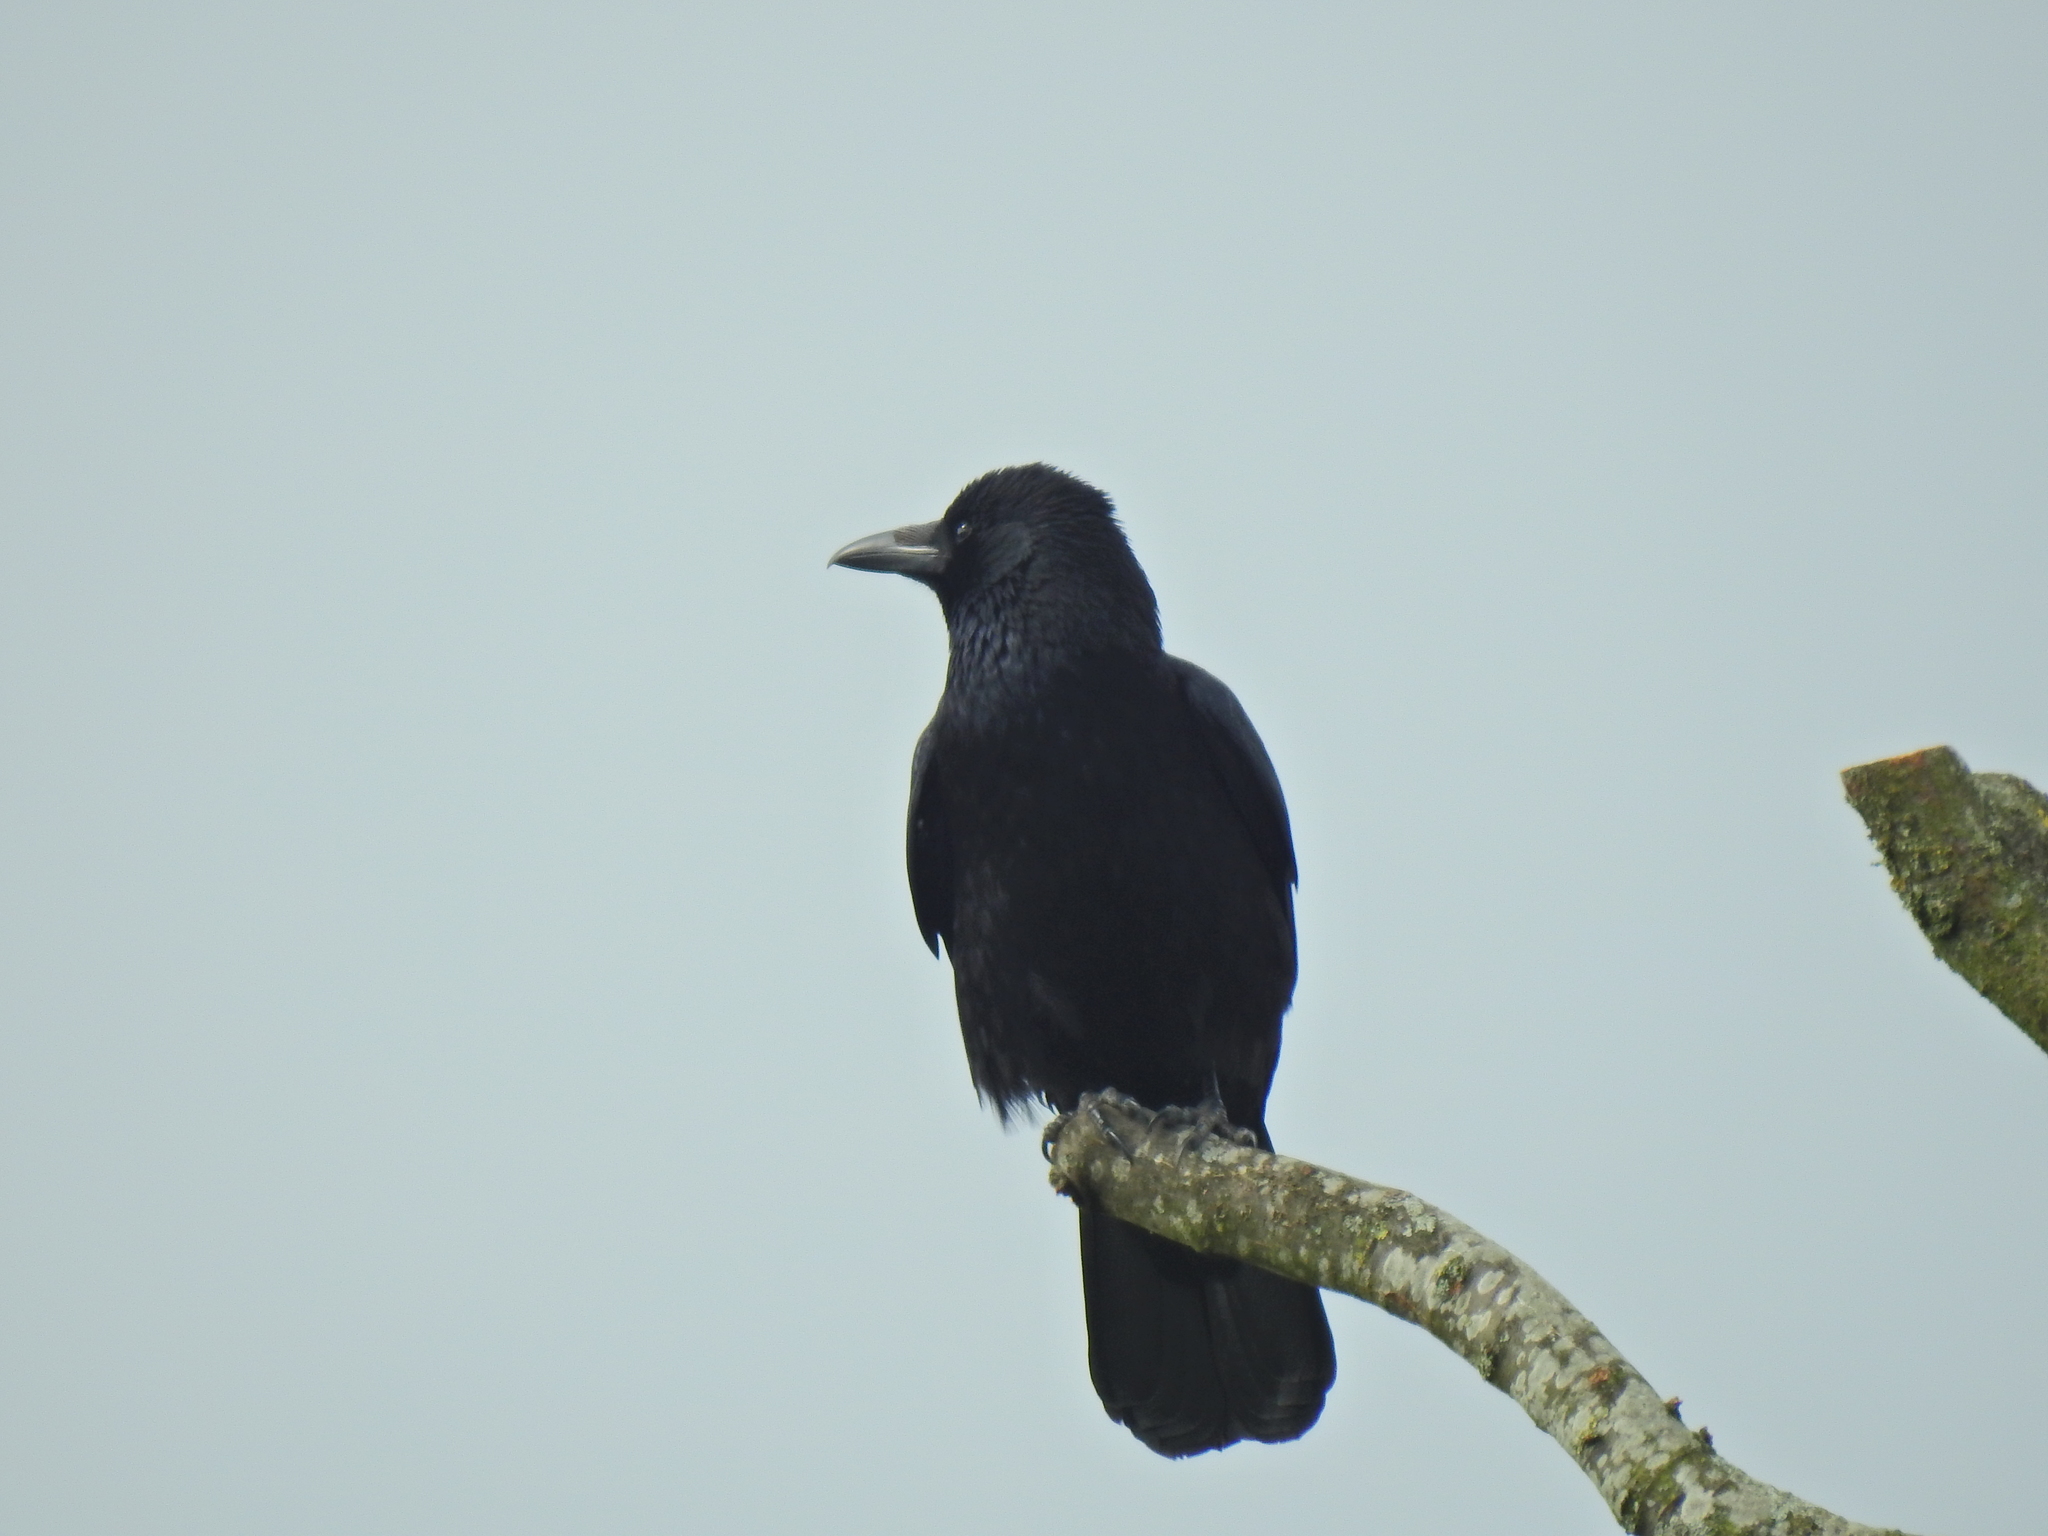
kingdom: Animalia
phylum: Chordata
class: Aves
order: Passeriformes
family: Corvidae
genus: Corvus
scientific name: Corvus corone
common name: Carrion crow
